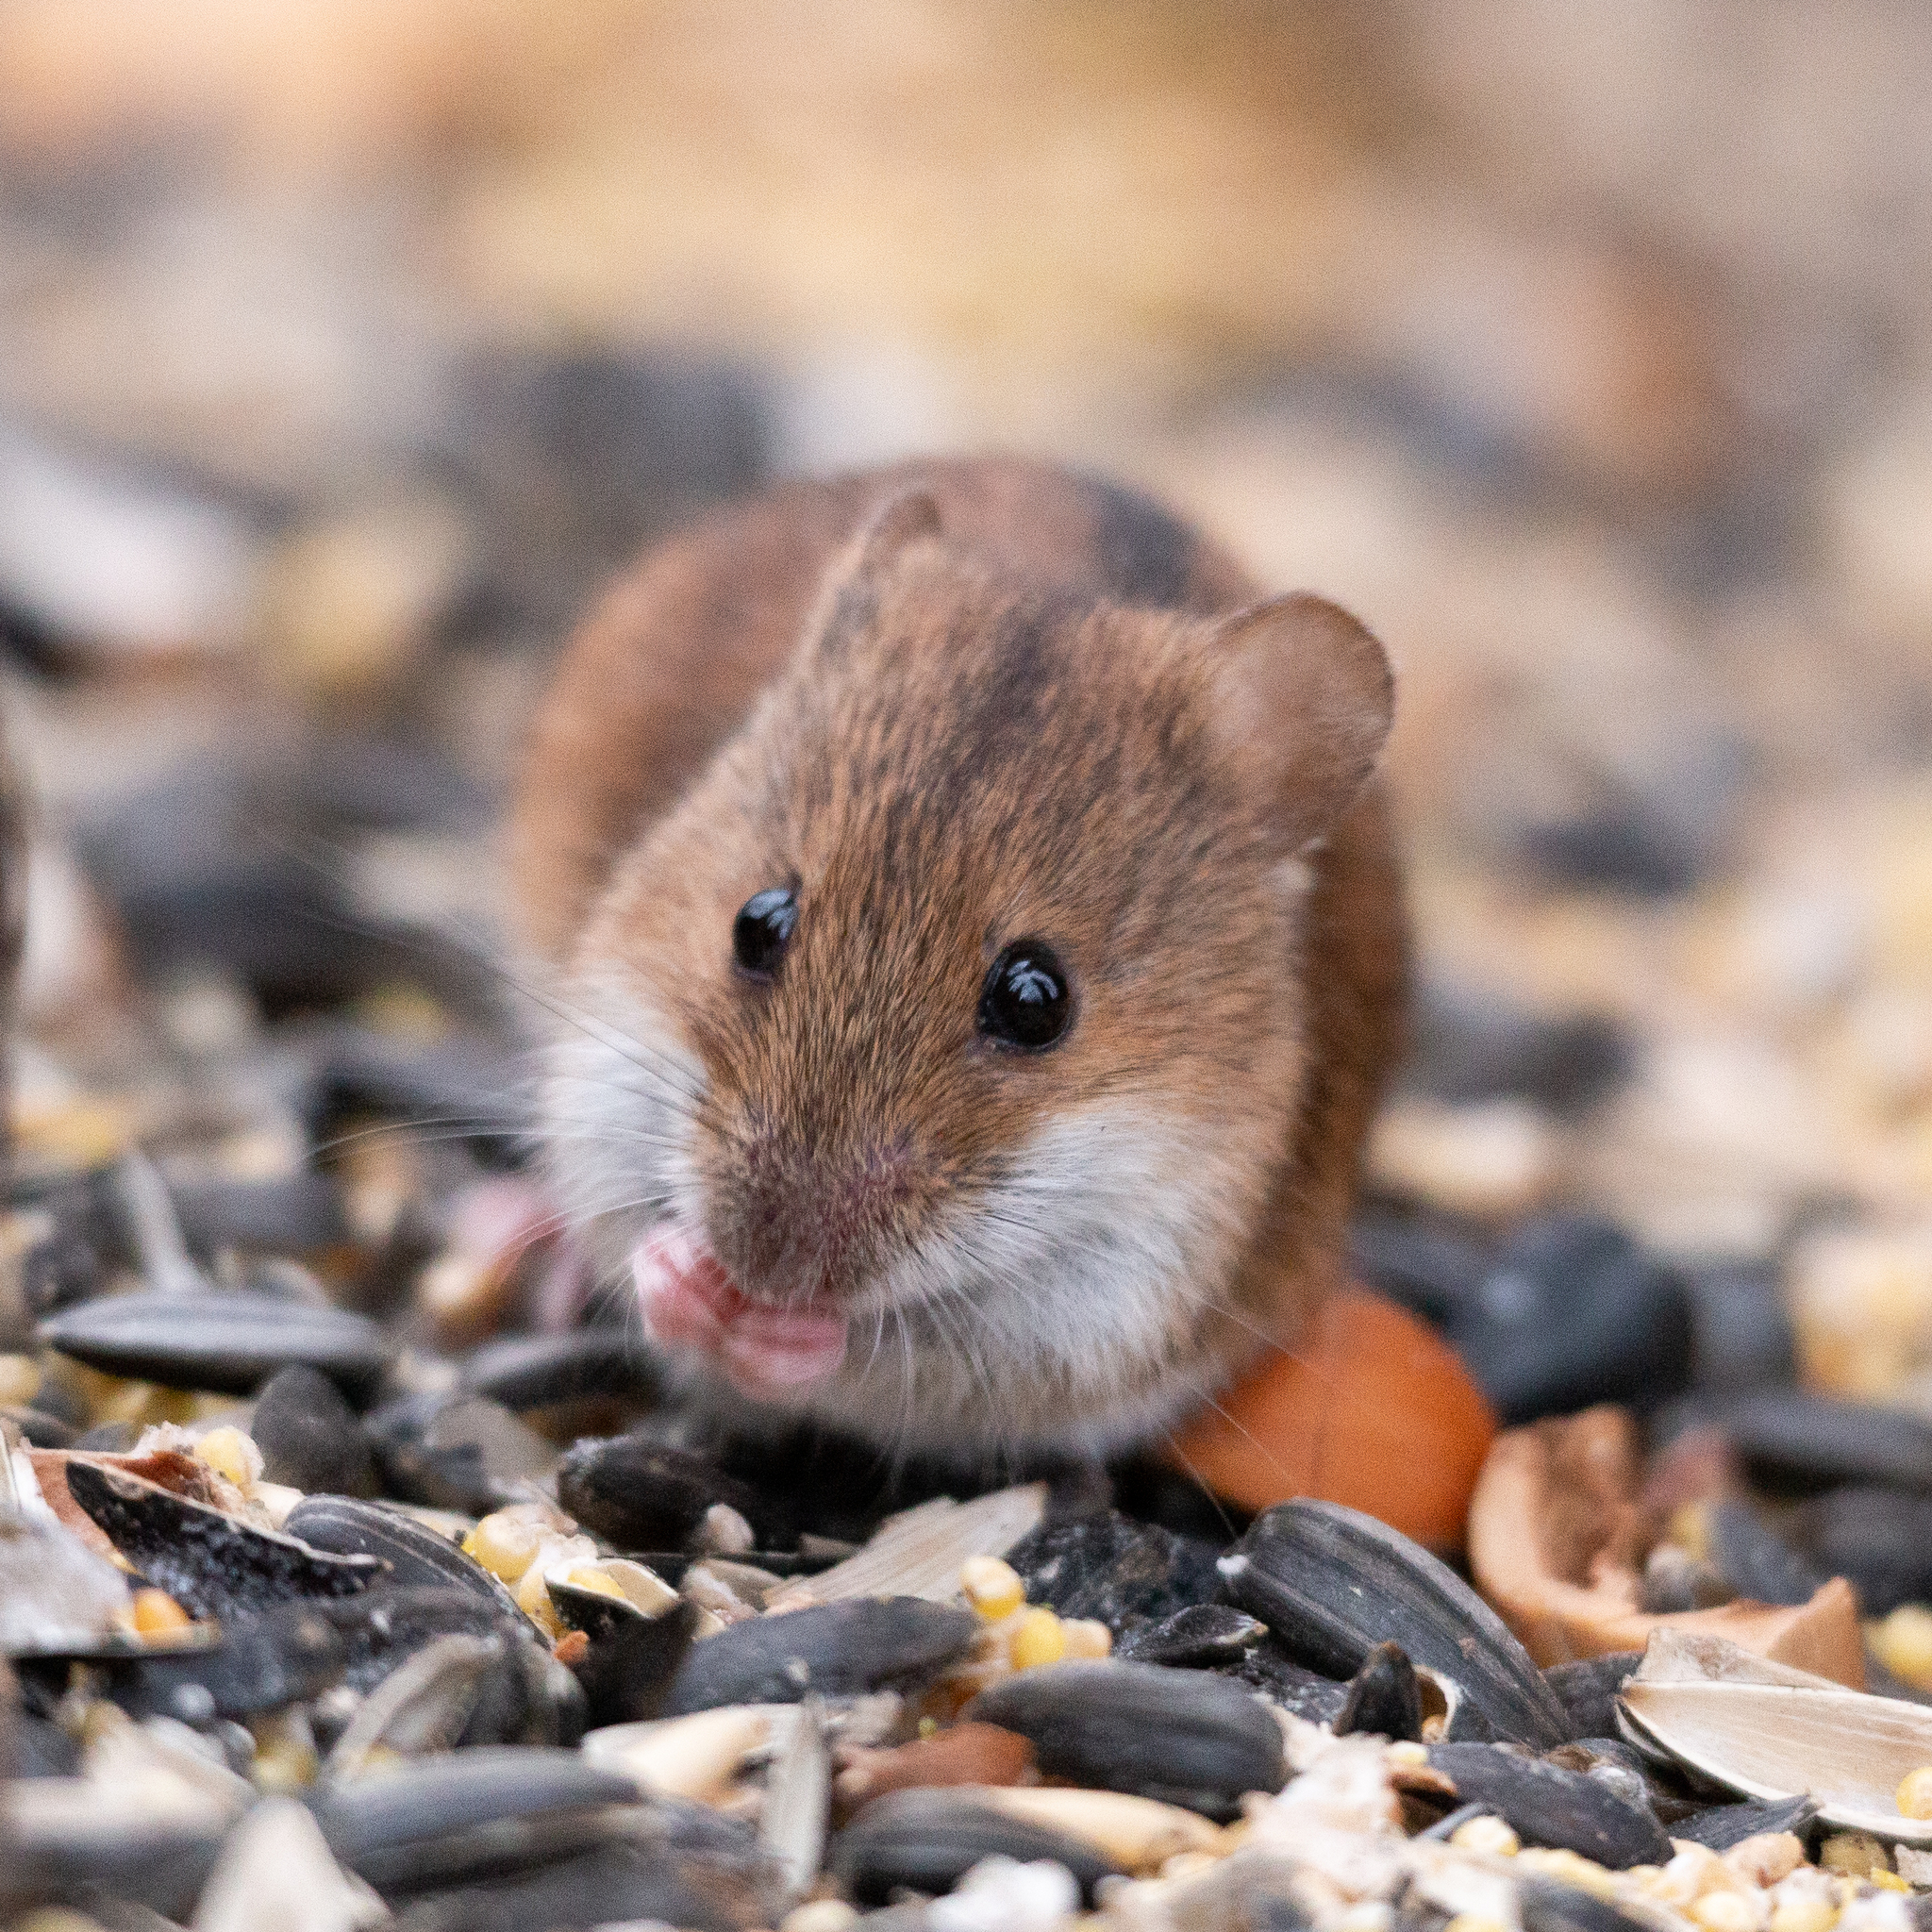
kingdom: Animalia
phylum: Chordata
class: Mammalia
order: Rodentia
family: Muridae
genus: Apodemus
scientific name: Apodemus agrarius
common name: Striped field mouse
